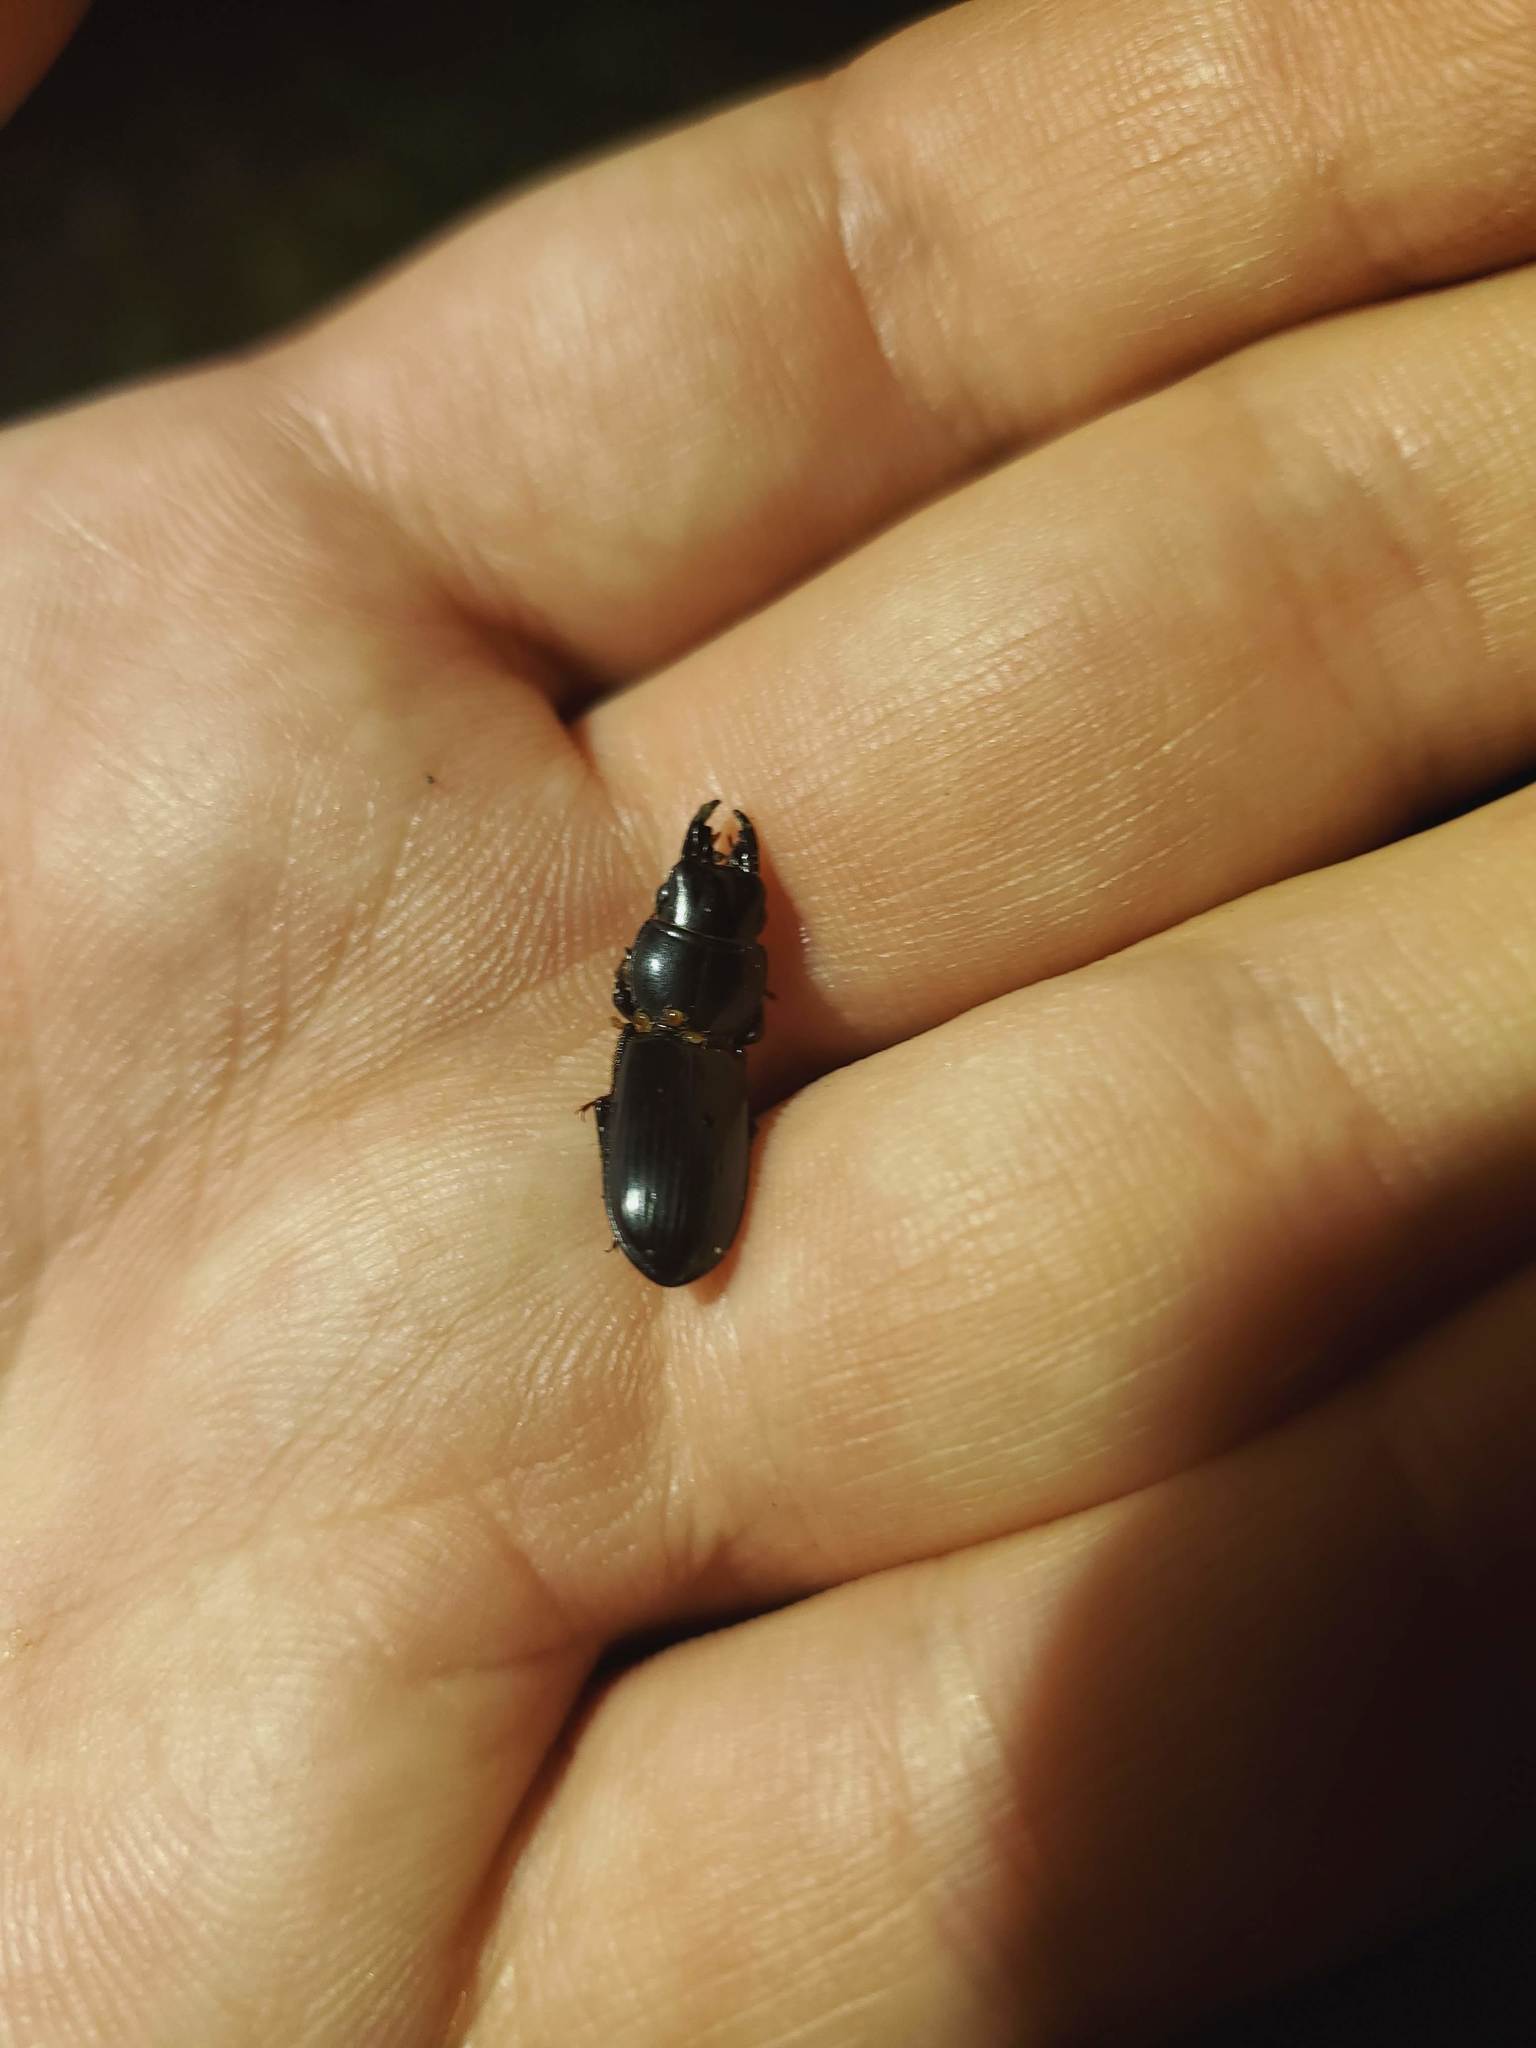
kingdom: Animalia
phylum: Arthropoda
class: Insecta
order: Coleoptera
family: Carabidae
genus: Scarites
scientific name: Scarites subterraneus
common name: Big-headed ground beetle
